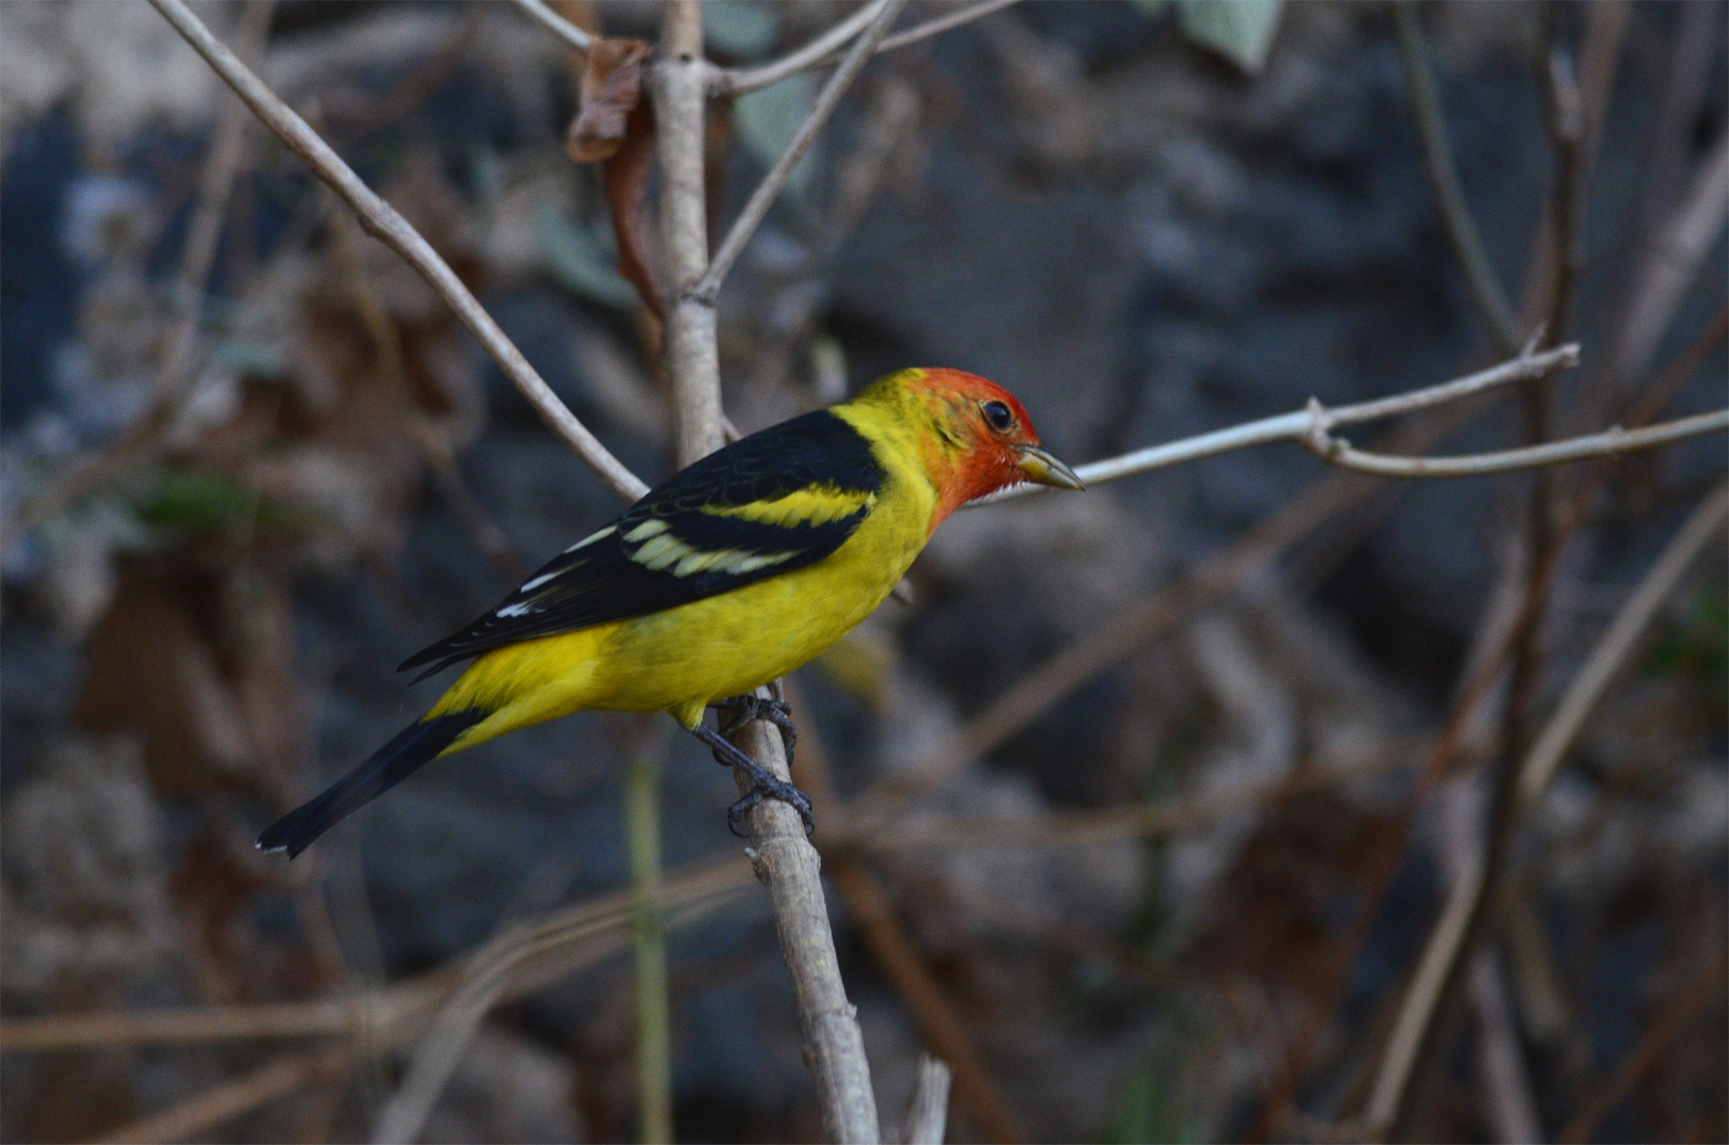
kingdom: Animalia
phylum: Chordata
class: Aves
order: Passeriformes
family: Cardinalidae
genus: Piranga
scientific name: Piranga ludoviciana
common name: Western tanager
